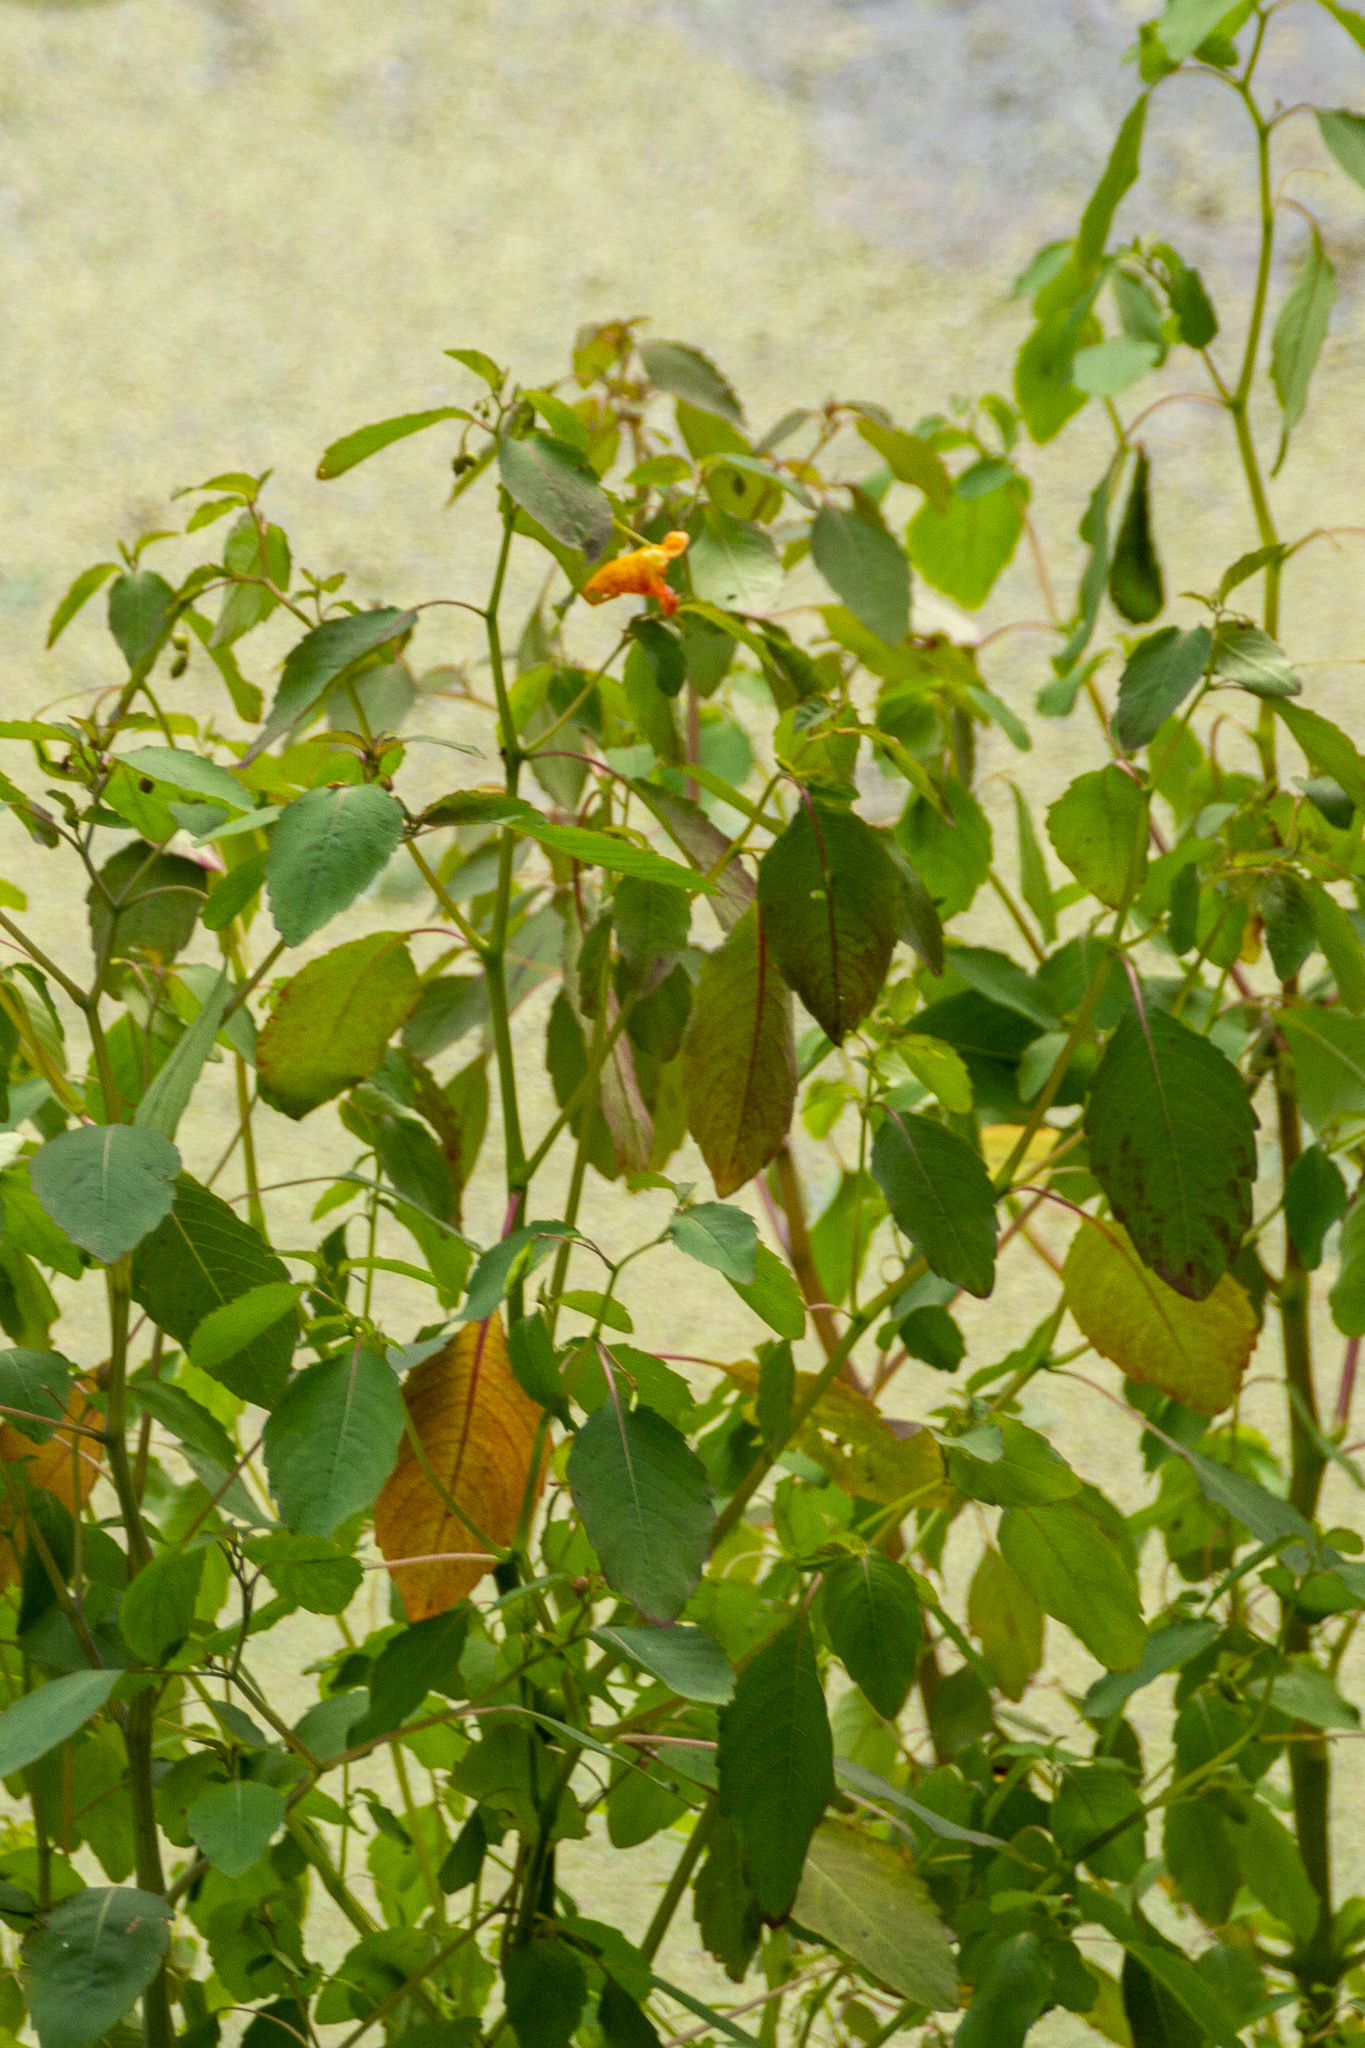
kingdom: Plantae
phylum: Tracheophyta
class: Magnoliopsida
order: Ericales
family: Balsaminaceae
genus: Impatiens
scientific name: Impatiens capensis
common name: Orange balsam
